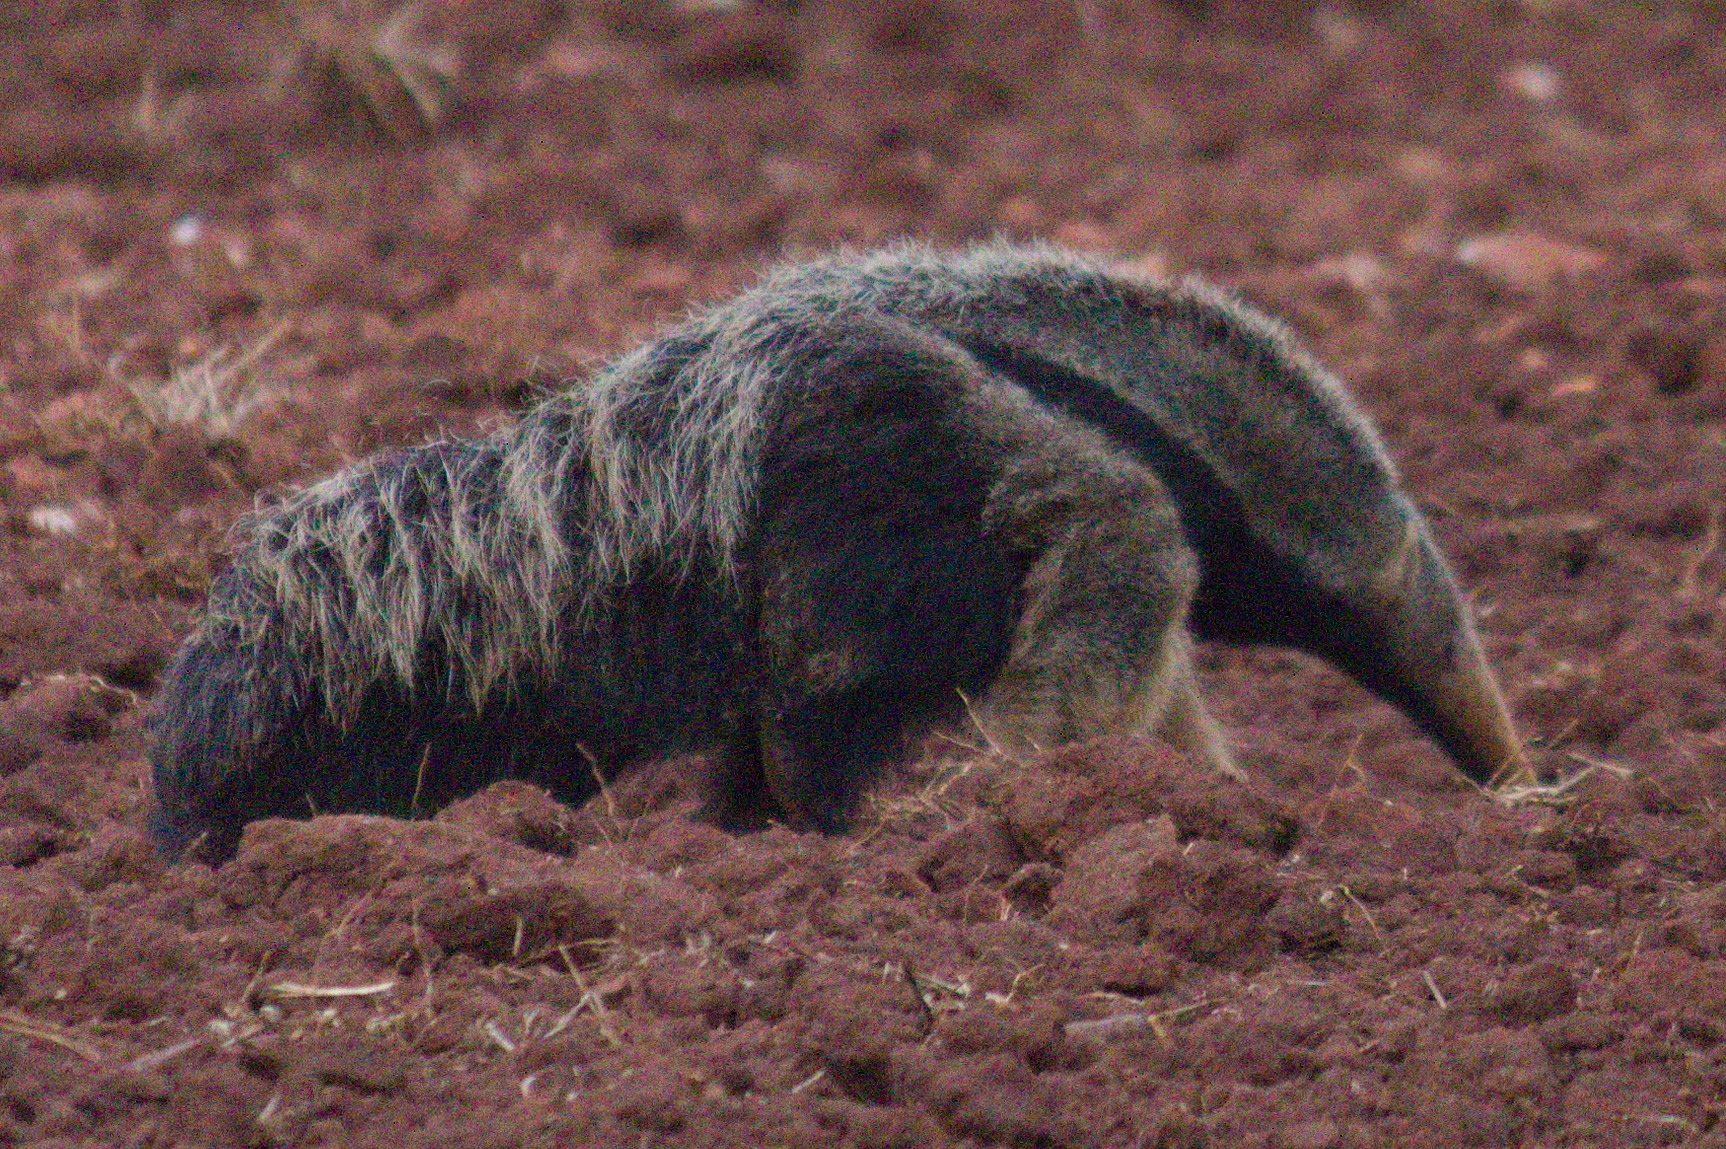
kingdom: Animalia
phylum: Chordata
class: Mammalia
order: Pilosa
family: Myrmecophagidae
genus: Myrmecophaga
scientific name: Myrmecophaga tridactyla
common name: Giant anteater
